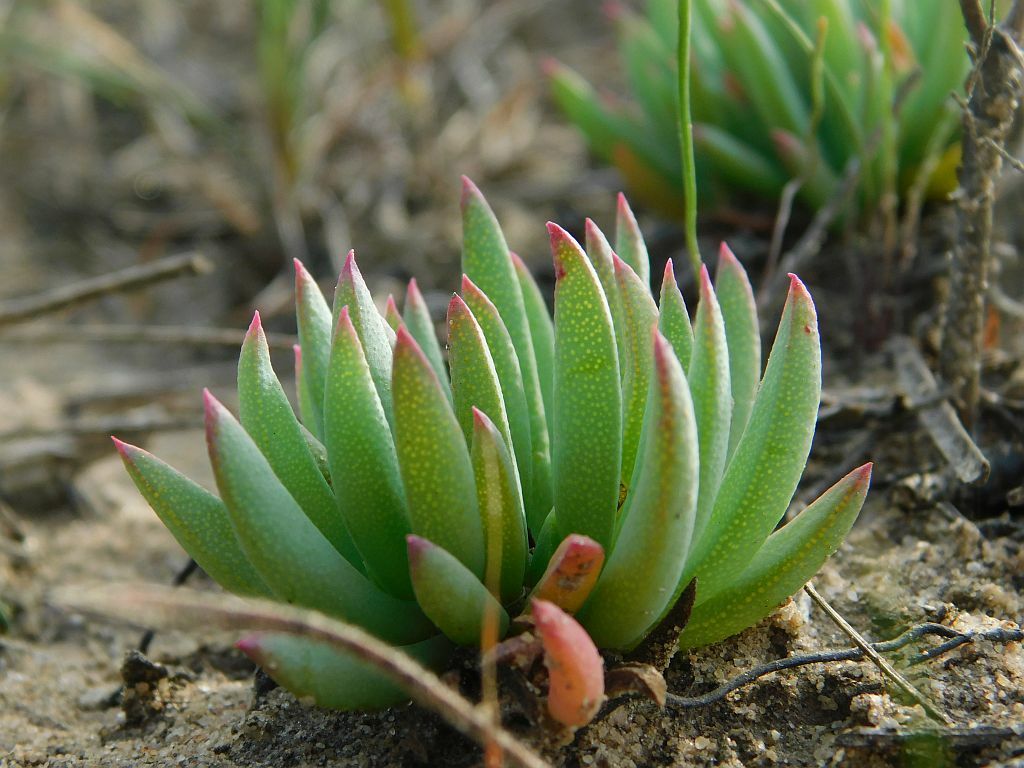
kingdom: Plantae
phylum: Tracheophyta
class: Magnoliopsida
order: Caryophyllales
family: Aizoaceae
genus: Lampranthus
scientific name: Lampranthus reptans
